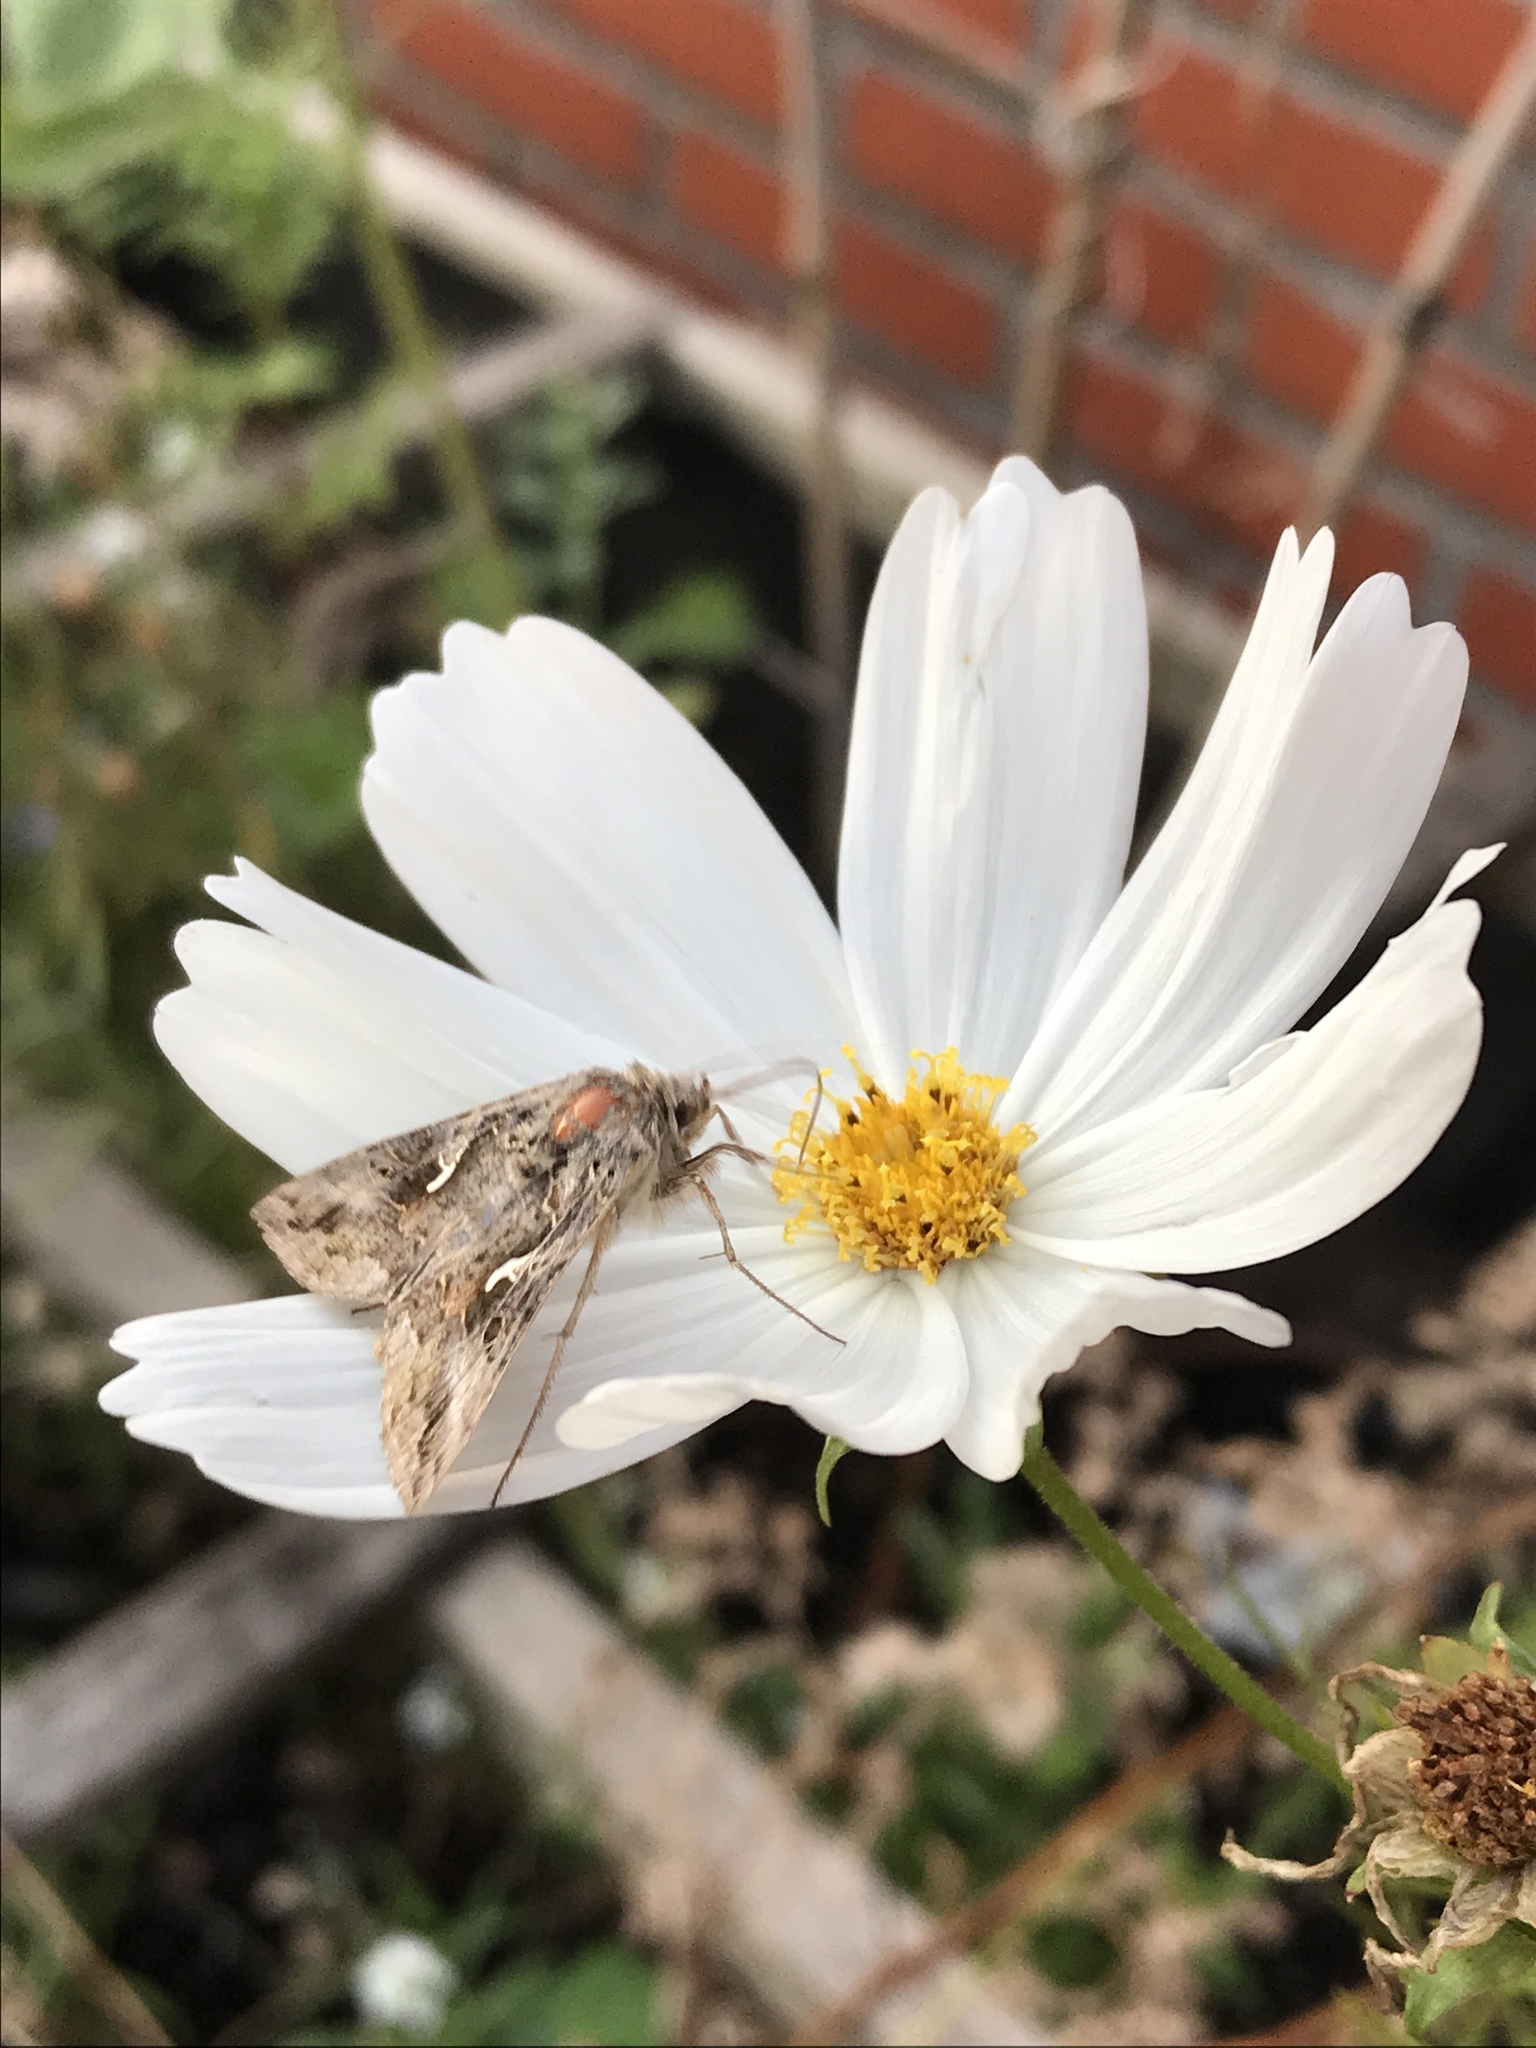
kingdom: Animalia
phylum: Arthropoda
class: Insecta
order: Lepidoptera
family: Noctuidae
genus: Autographa
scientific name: Autographa gamma
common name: Silver y
